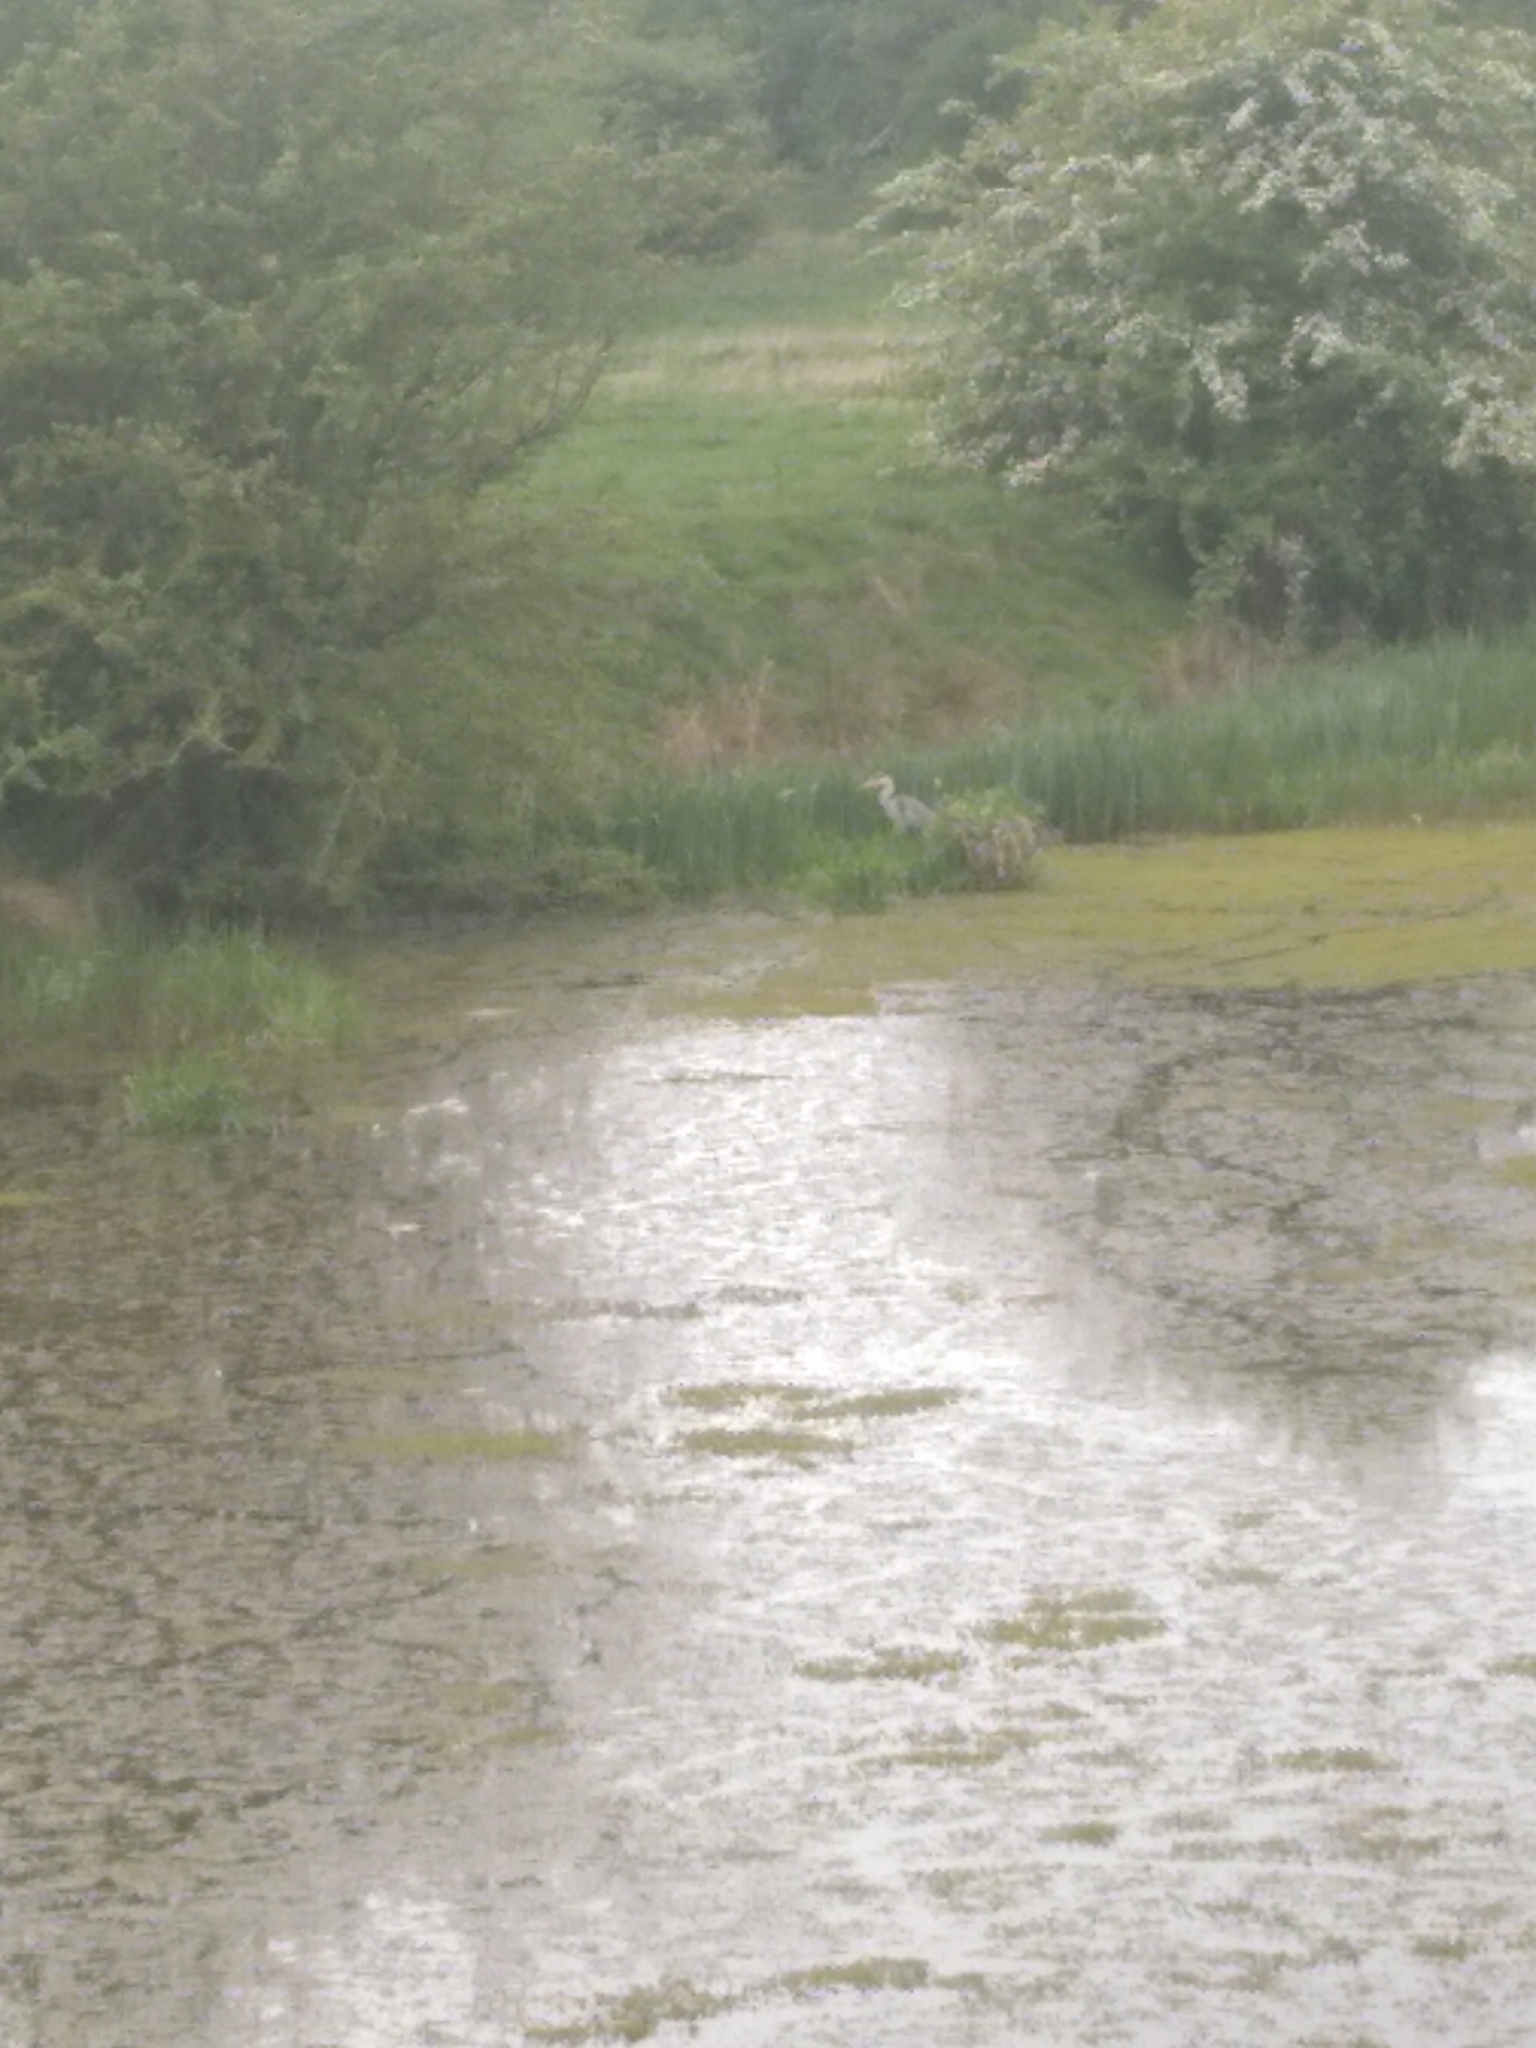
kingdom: Animalia
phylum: Chordata
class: Aves
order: Pelecaniformes
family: Ardeidae
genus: Ardea
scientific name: Ardea cinerea
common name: Grey heron
